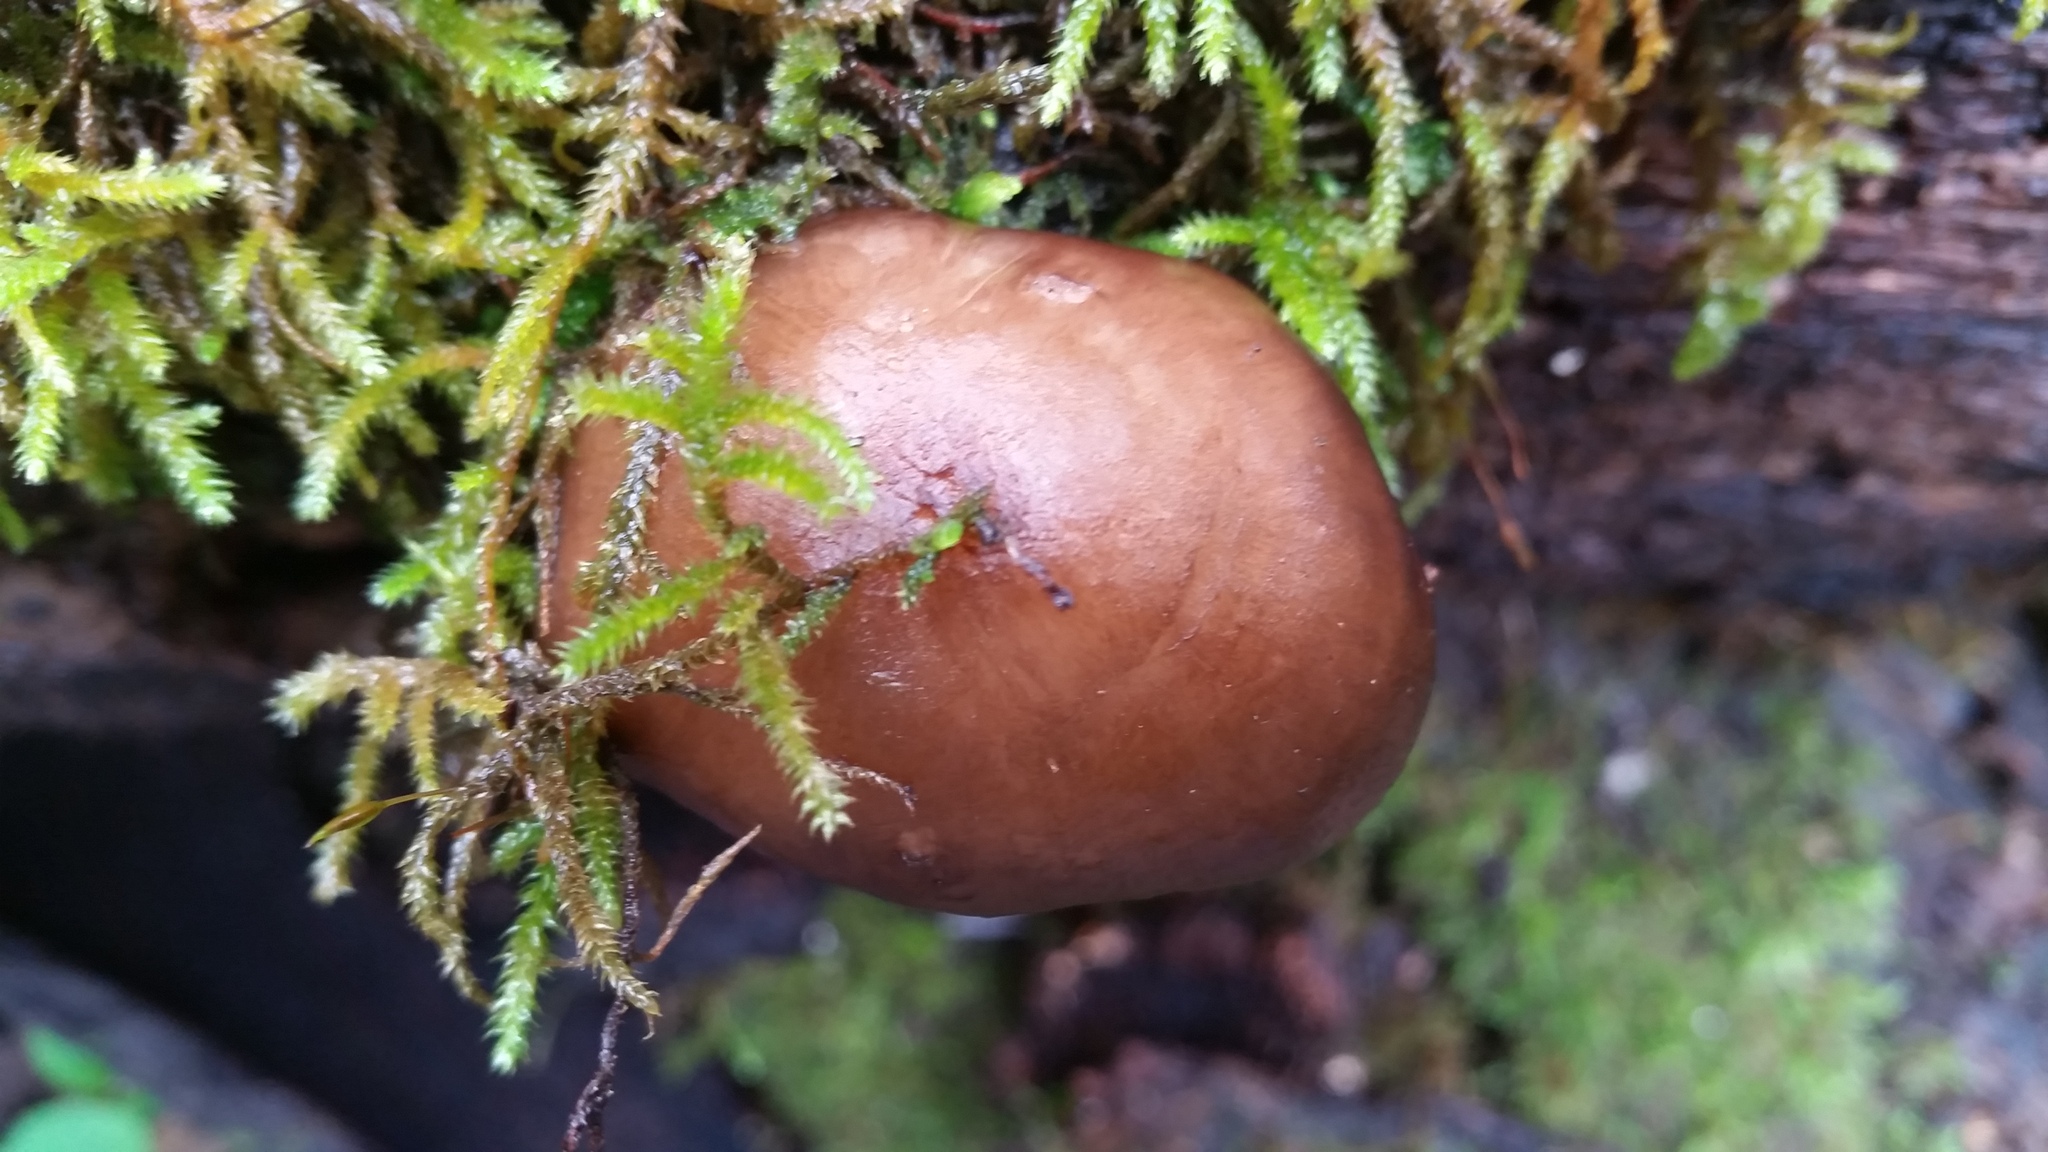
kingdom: Fungi
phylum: Basidiomycota
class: Agaricomycetes
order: Agaricales
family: Pluteaceae
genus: Pluteus
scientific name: Pluteus exilis
